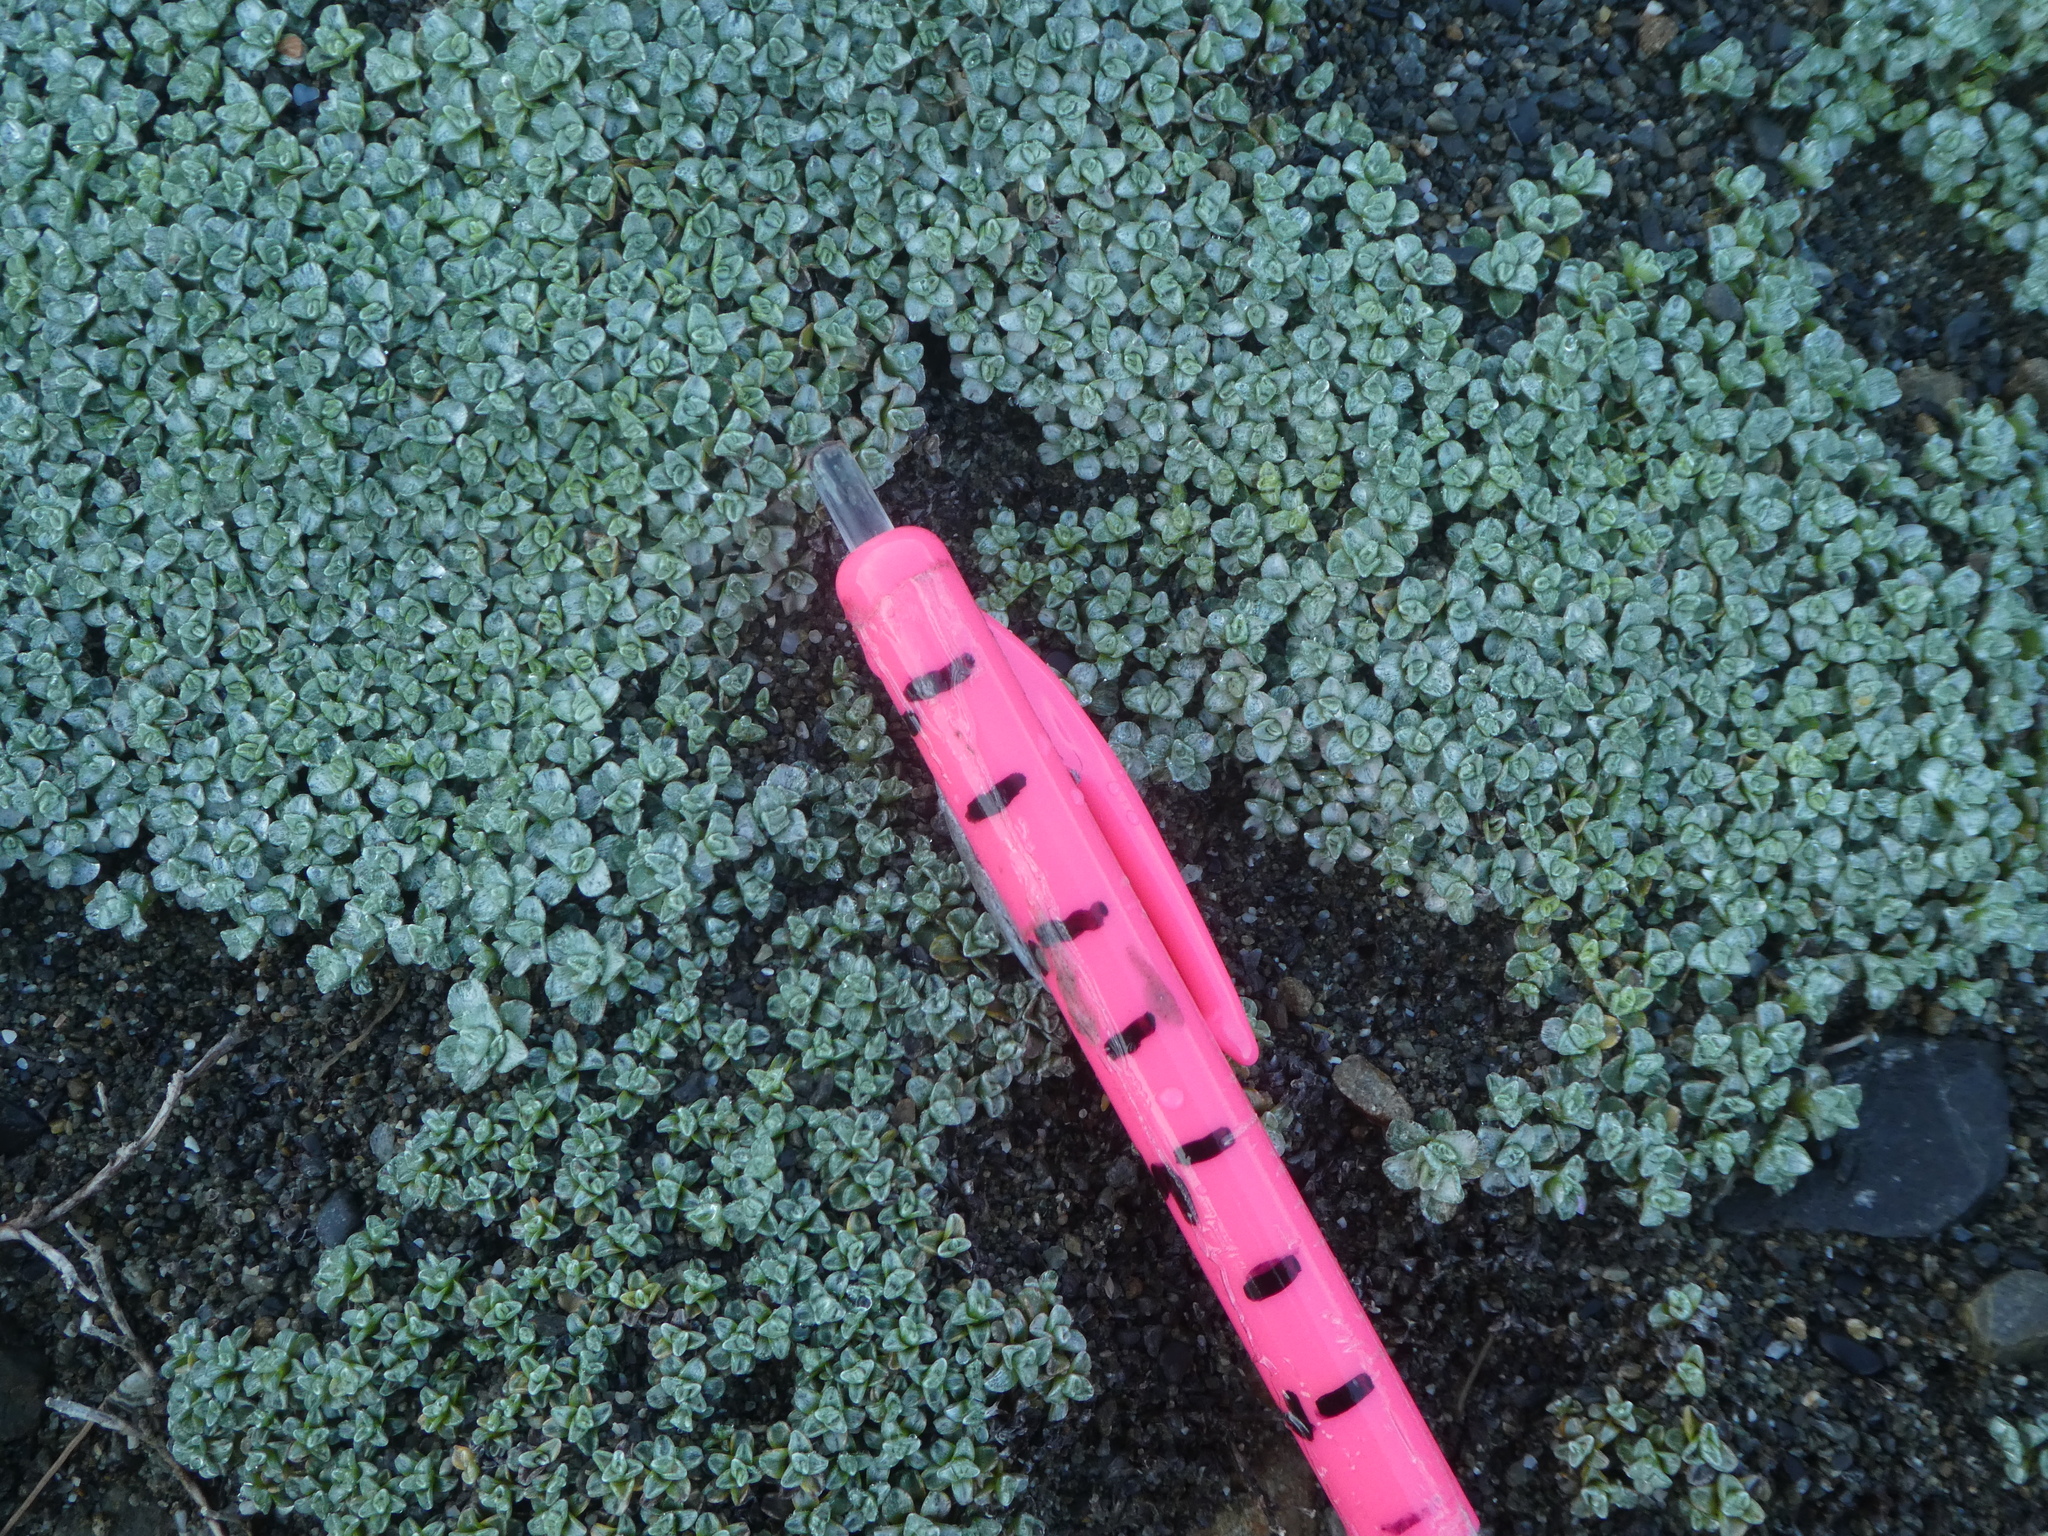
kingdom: Plantae
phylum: Tracheophyta
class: Magnoliopsida
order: Asterales
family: Asteraceae
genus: Raoulia
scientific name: Raoulia hookeri
